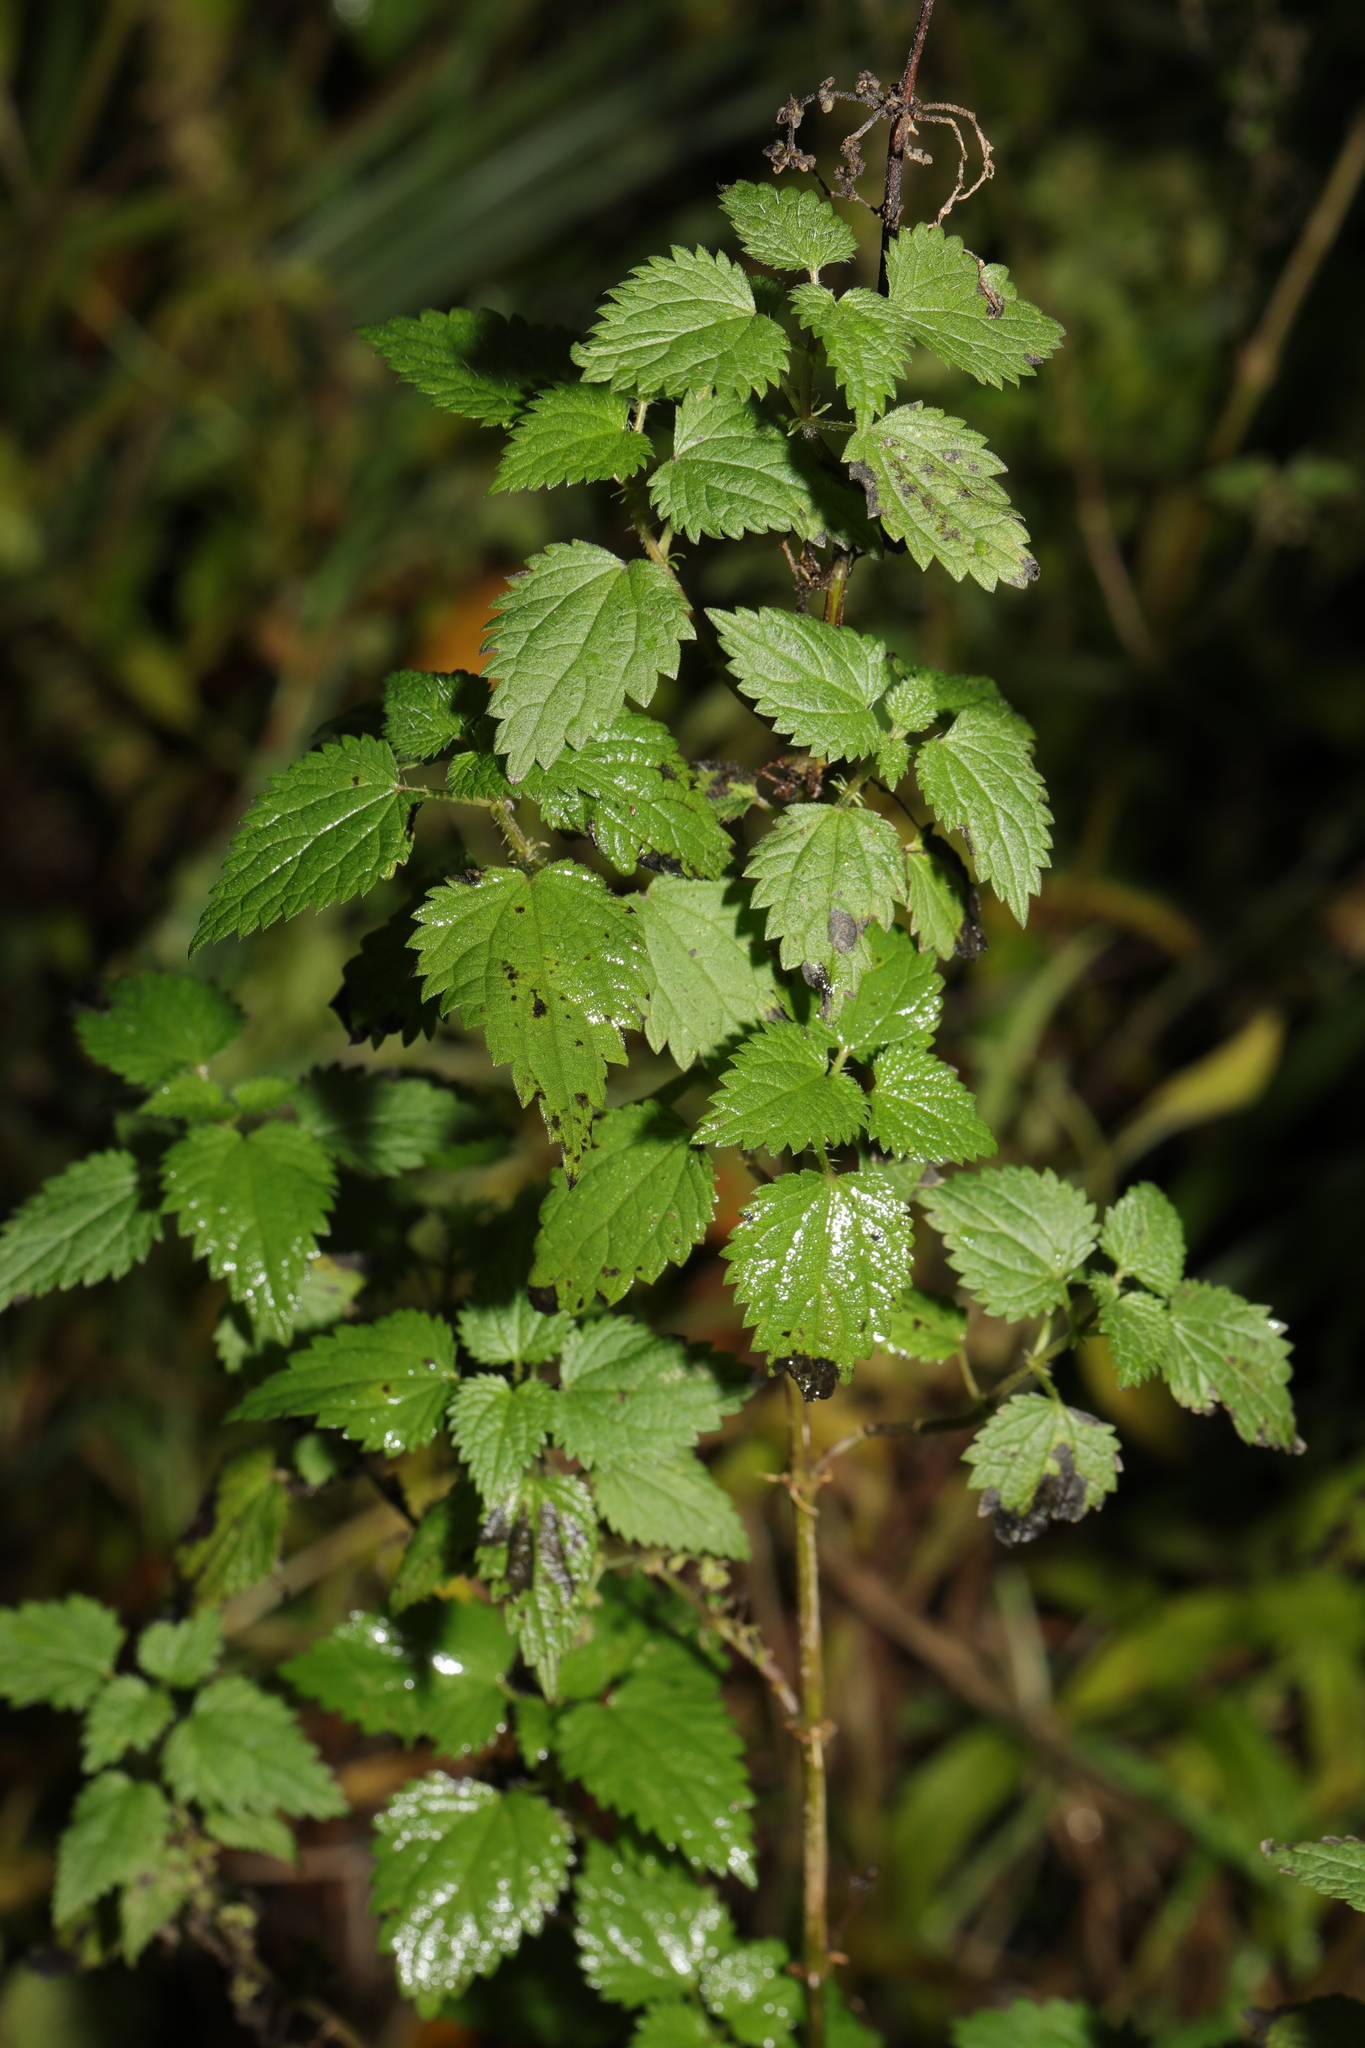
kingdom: Plantae
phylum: Tracheophyta
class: Magnoliopsida
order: Rosales
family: Urticaceae
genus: Urtica
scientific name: Urtica dioica
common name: Common nettle
